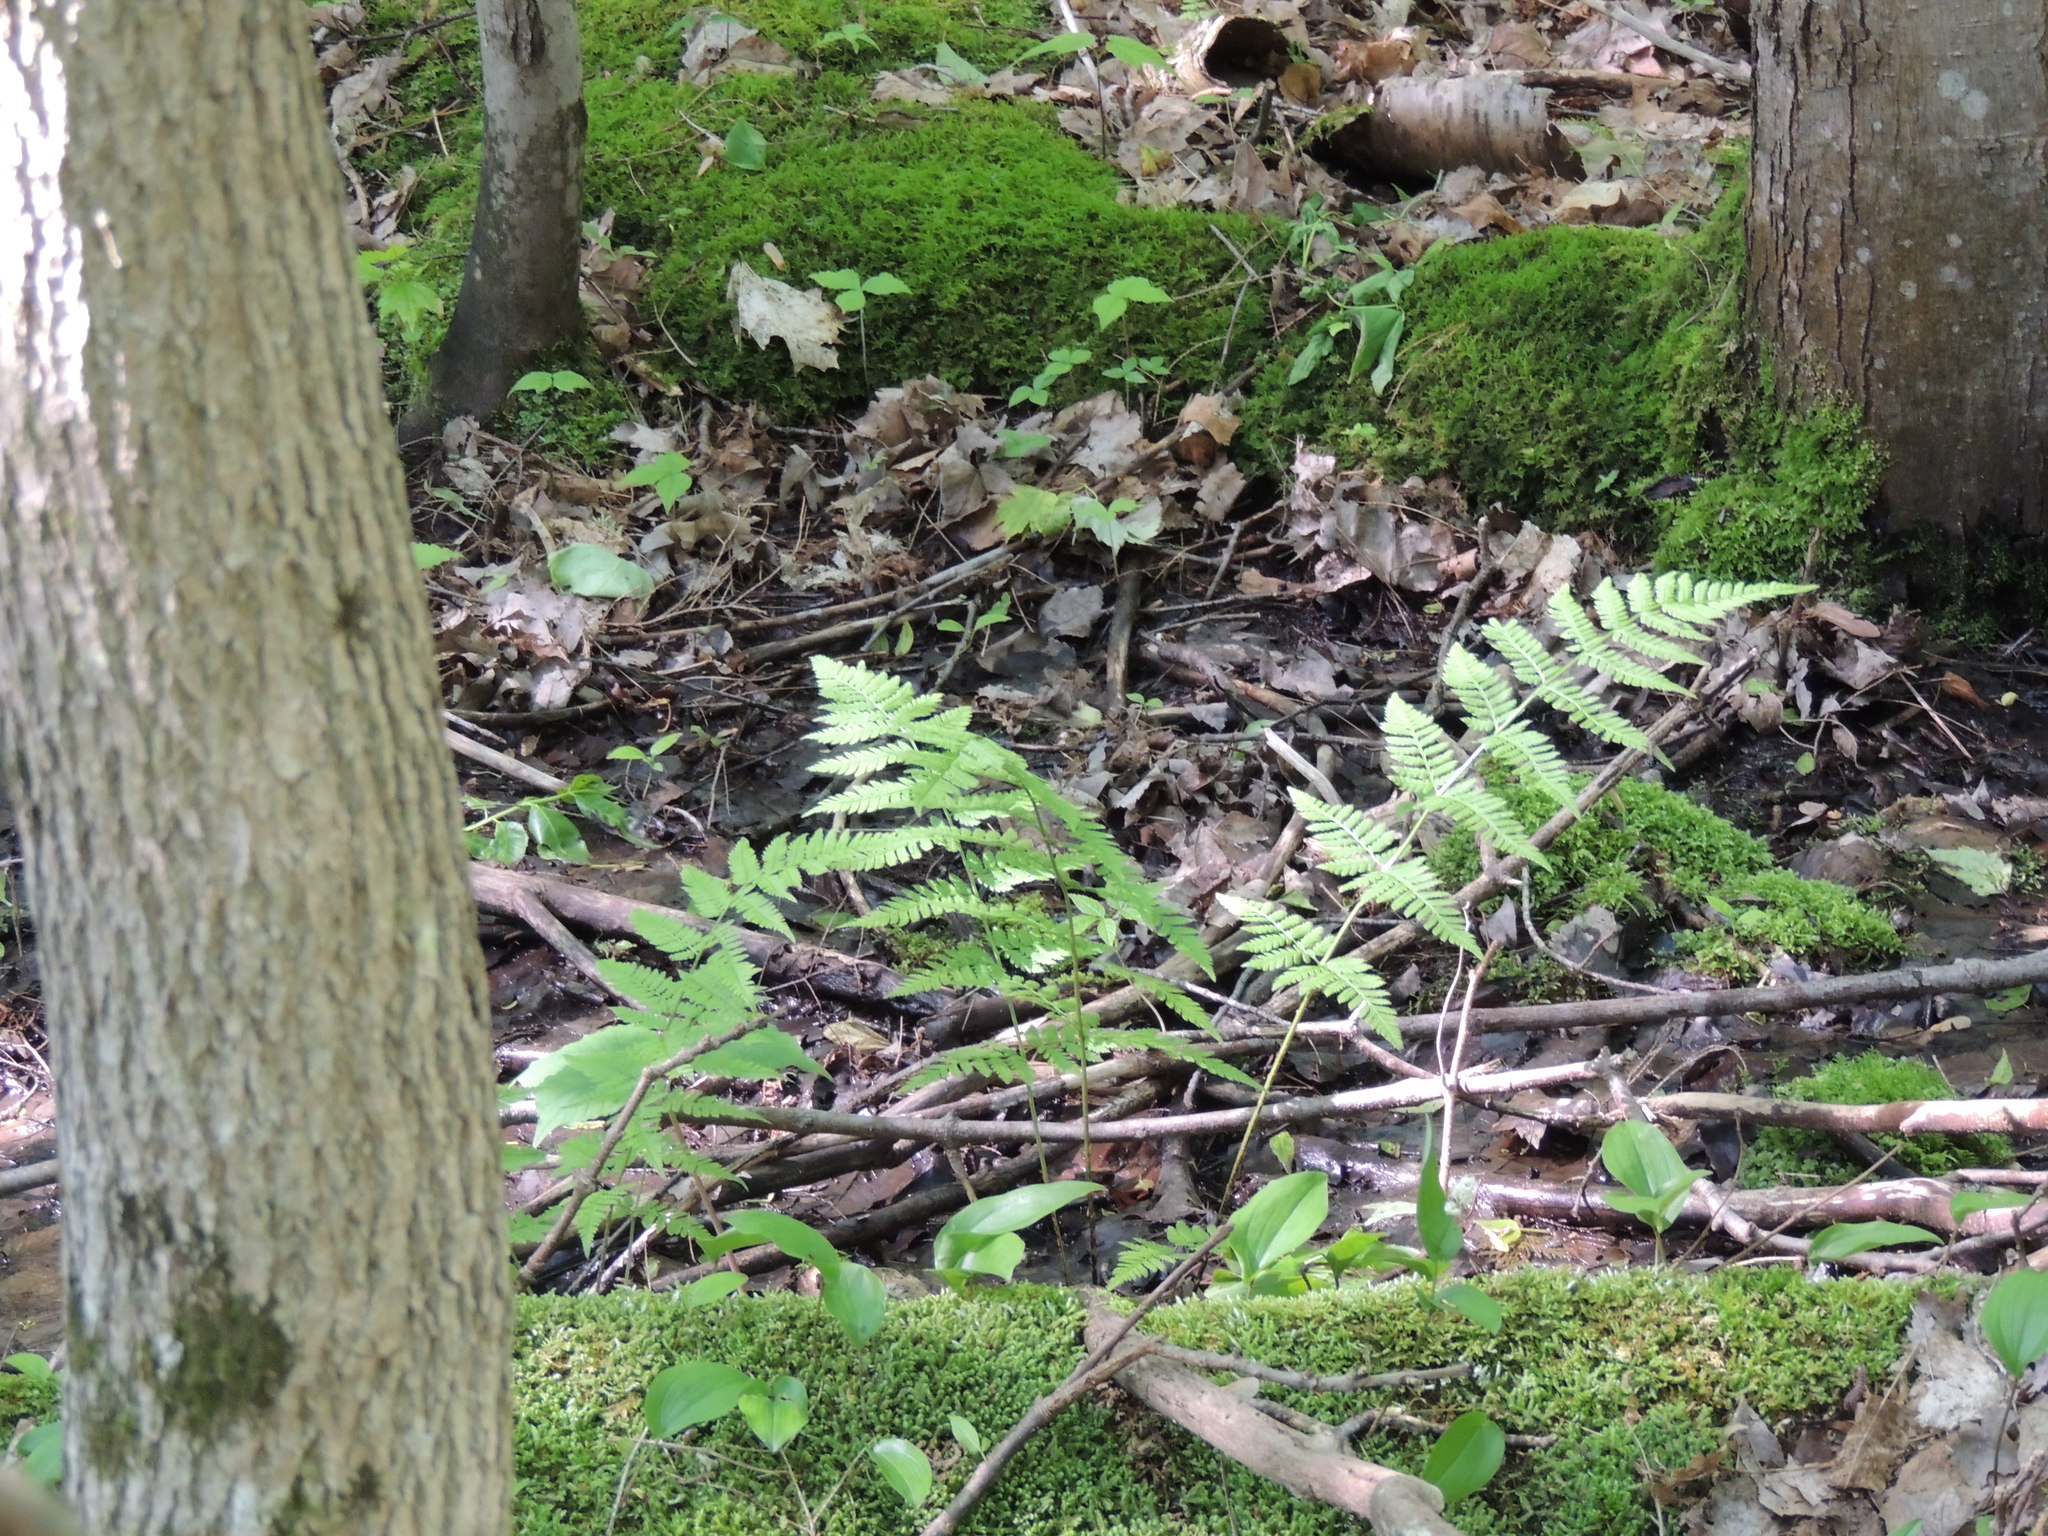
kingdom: Plantae
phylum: Tracheophyta
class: Polypodiopsida
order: Polypodiales
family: Dryopteridaceae
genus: Dryopteris
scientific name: Dryopteris carthusiana
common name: Narrow buckler-fern
